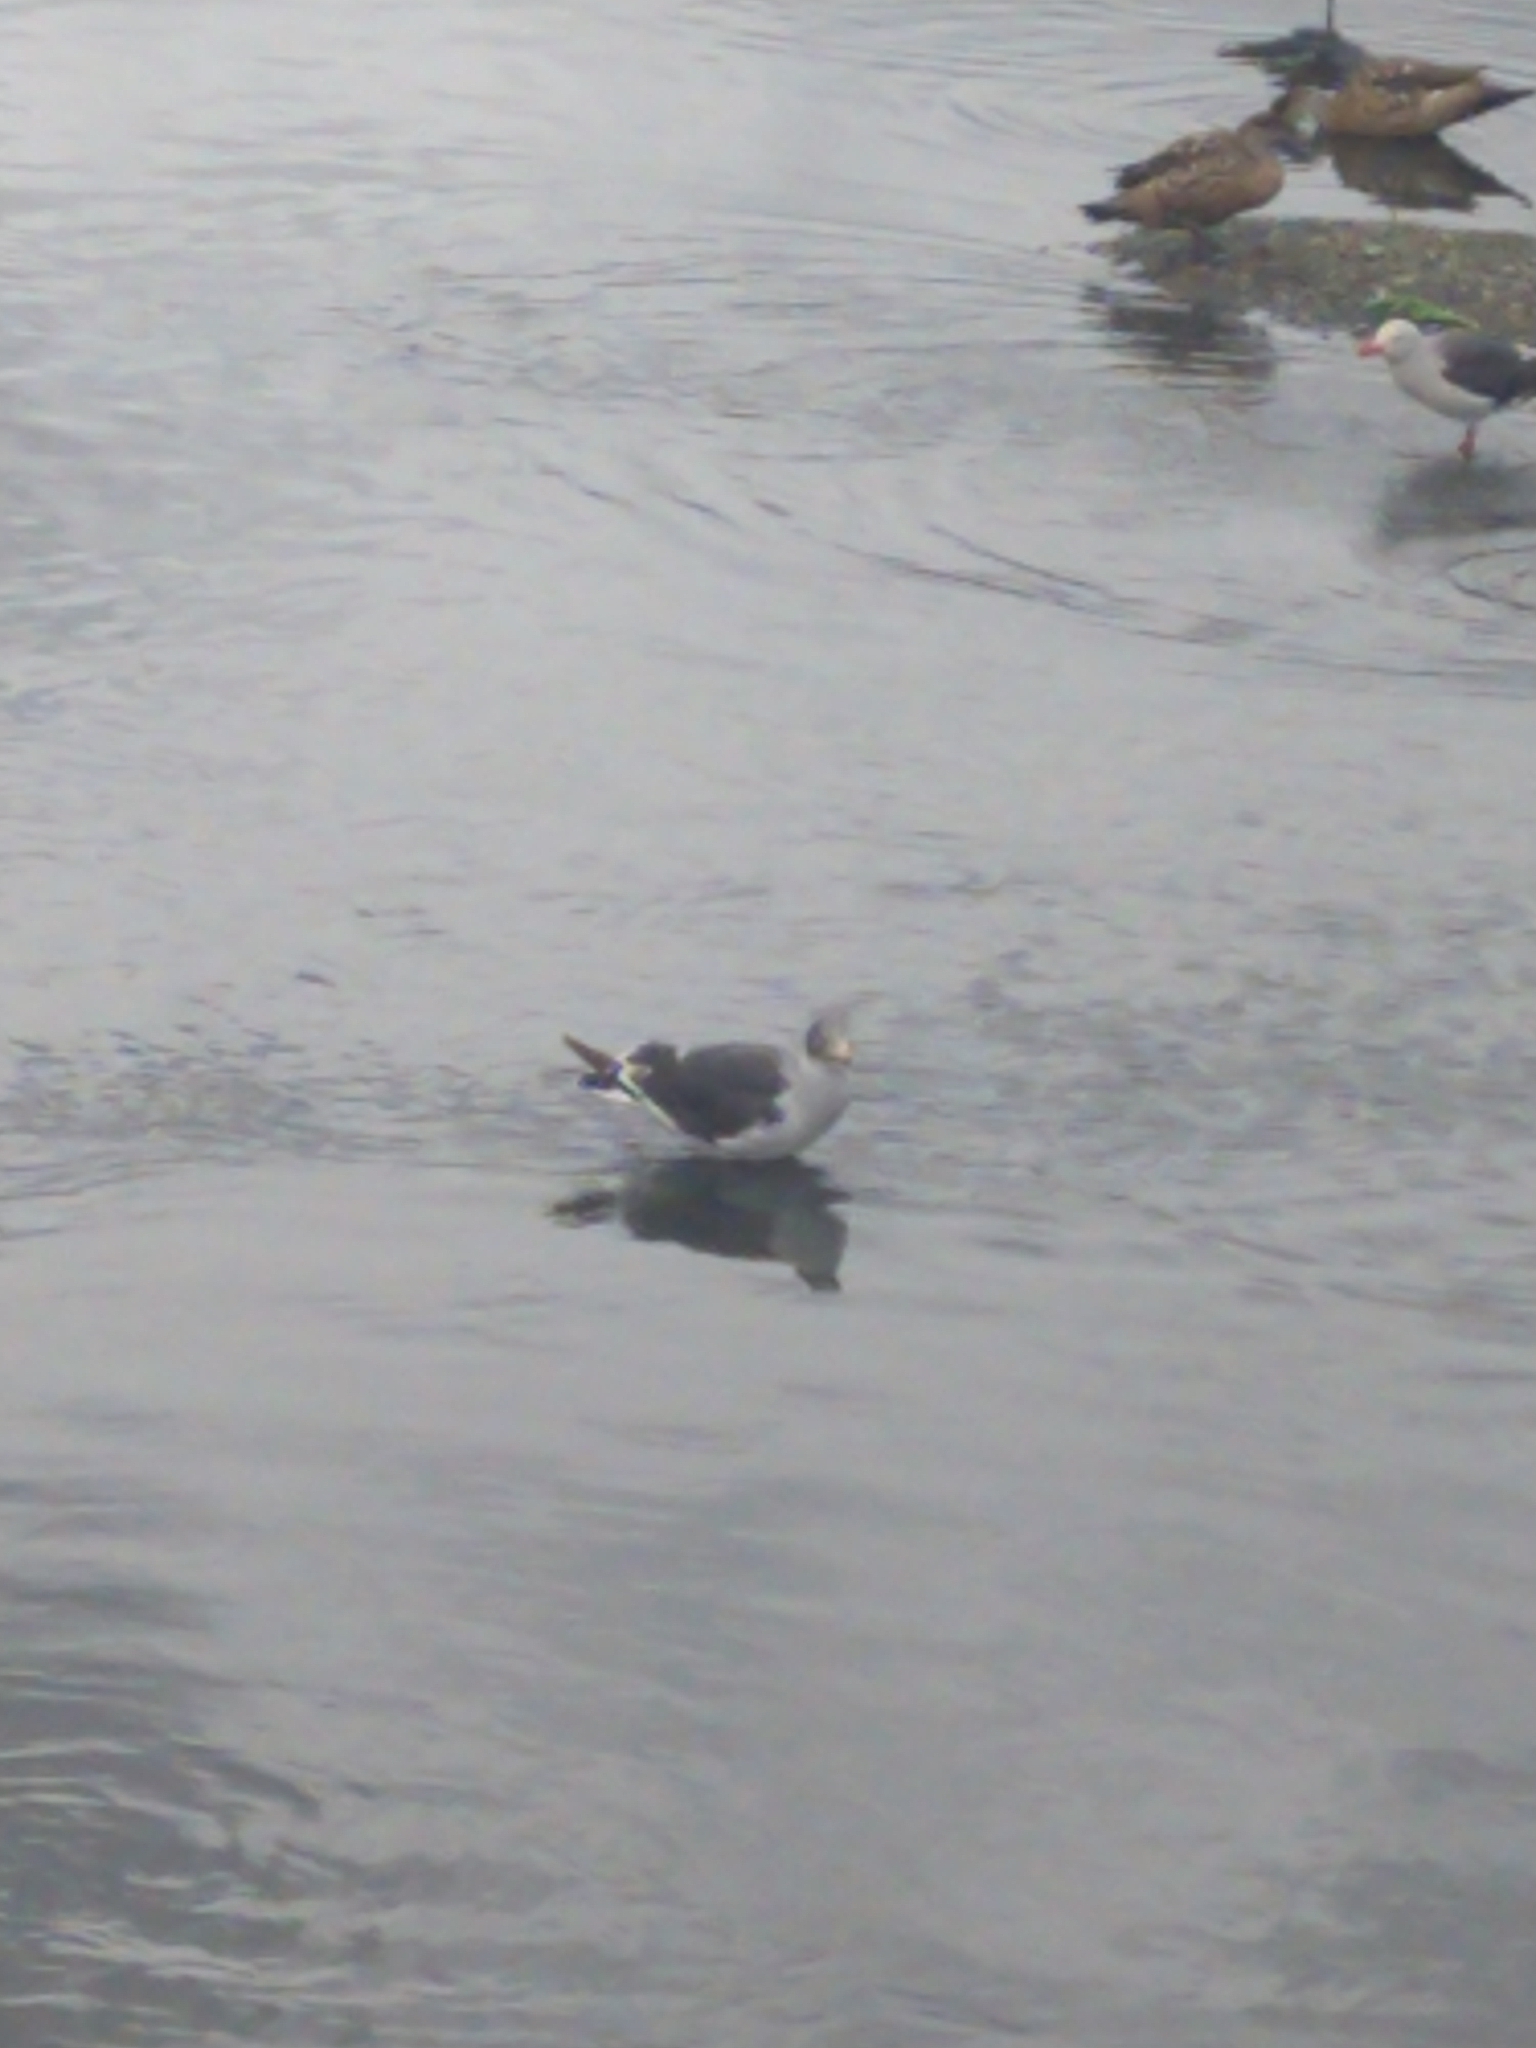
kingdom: Animalia
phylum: Chordata
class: Aves
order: Charadriiformes
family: Laridae
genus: Leucophaeus
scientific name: Leucophaeus scoresbii
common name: Dolphin gull
